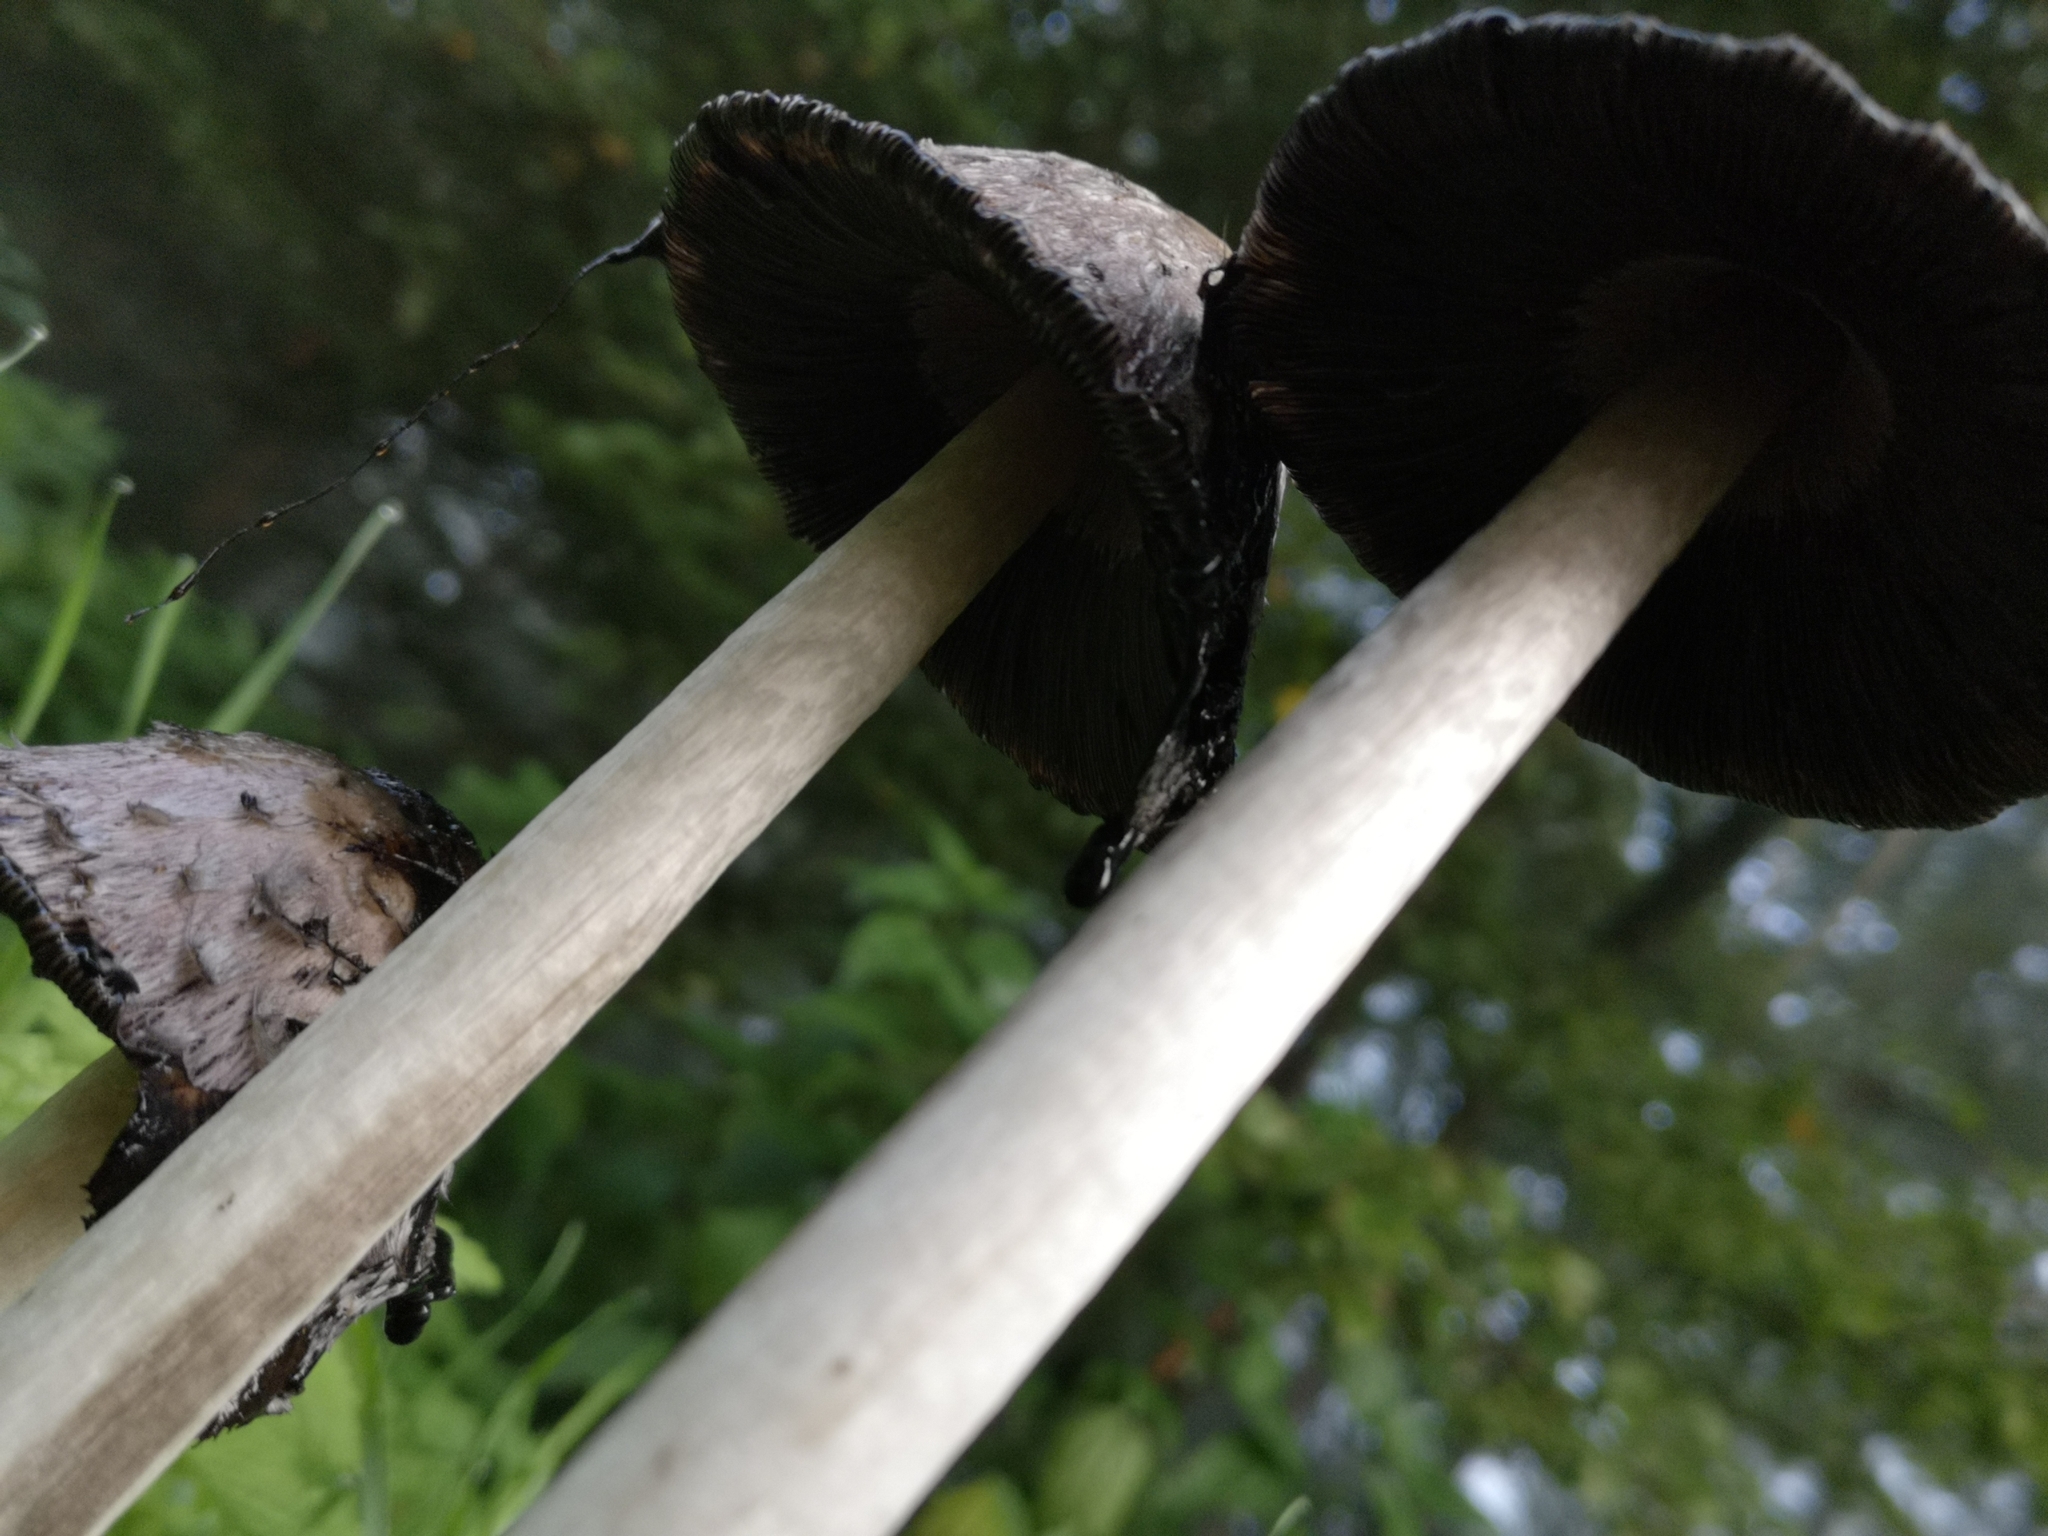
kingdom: Fungi
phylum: Basidiomycota
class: Agaricomycetes
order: Agaricales
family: Agaricaceae
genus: Coprinus
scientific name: Coprinus comatus
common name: Lawyer's wig
